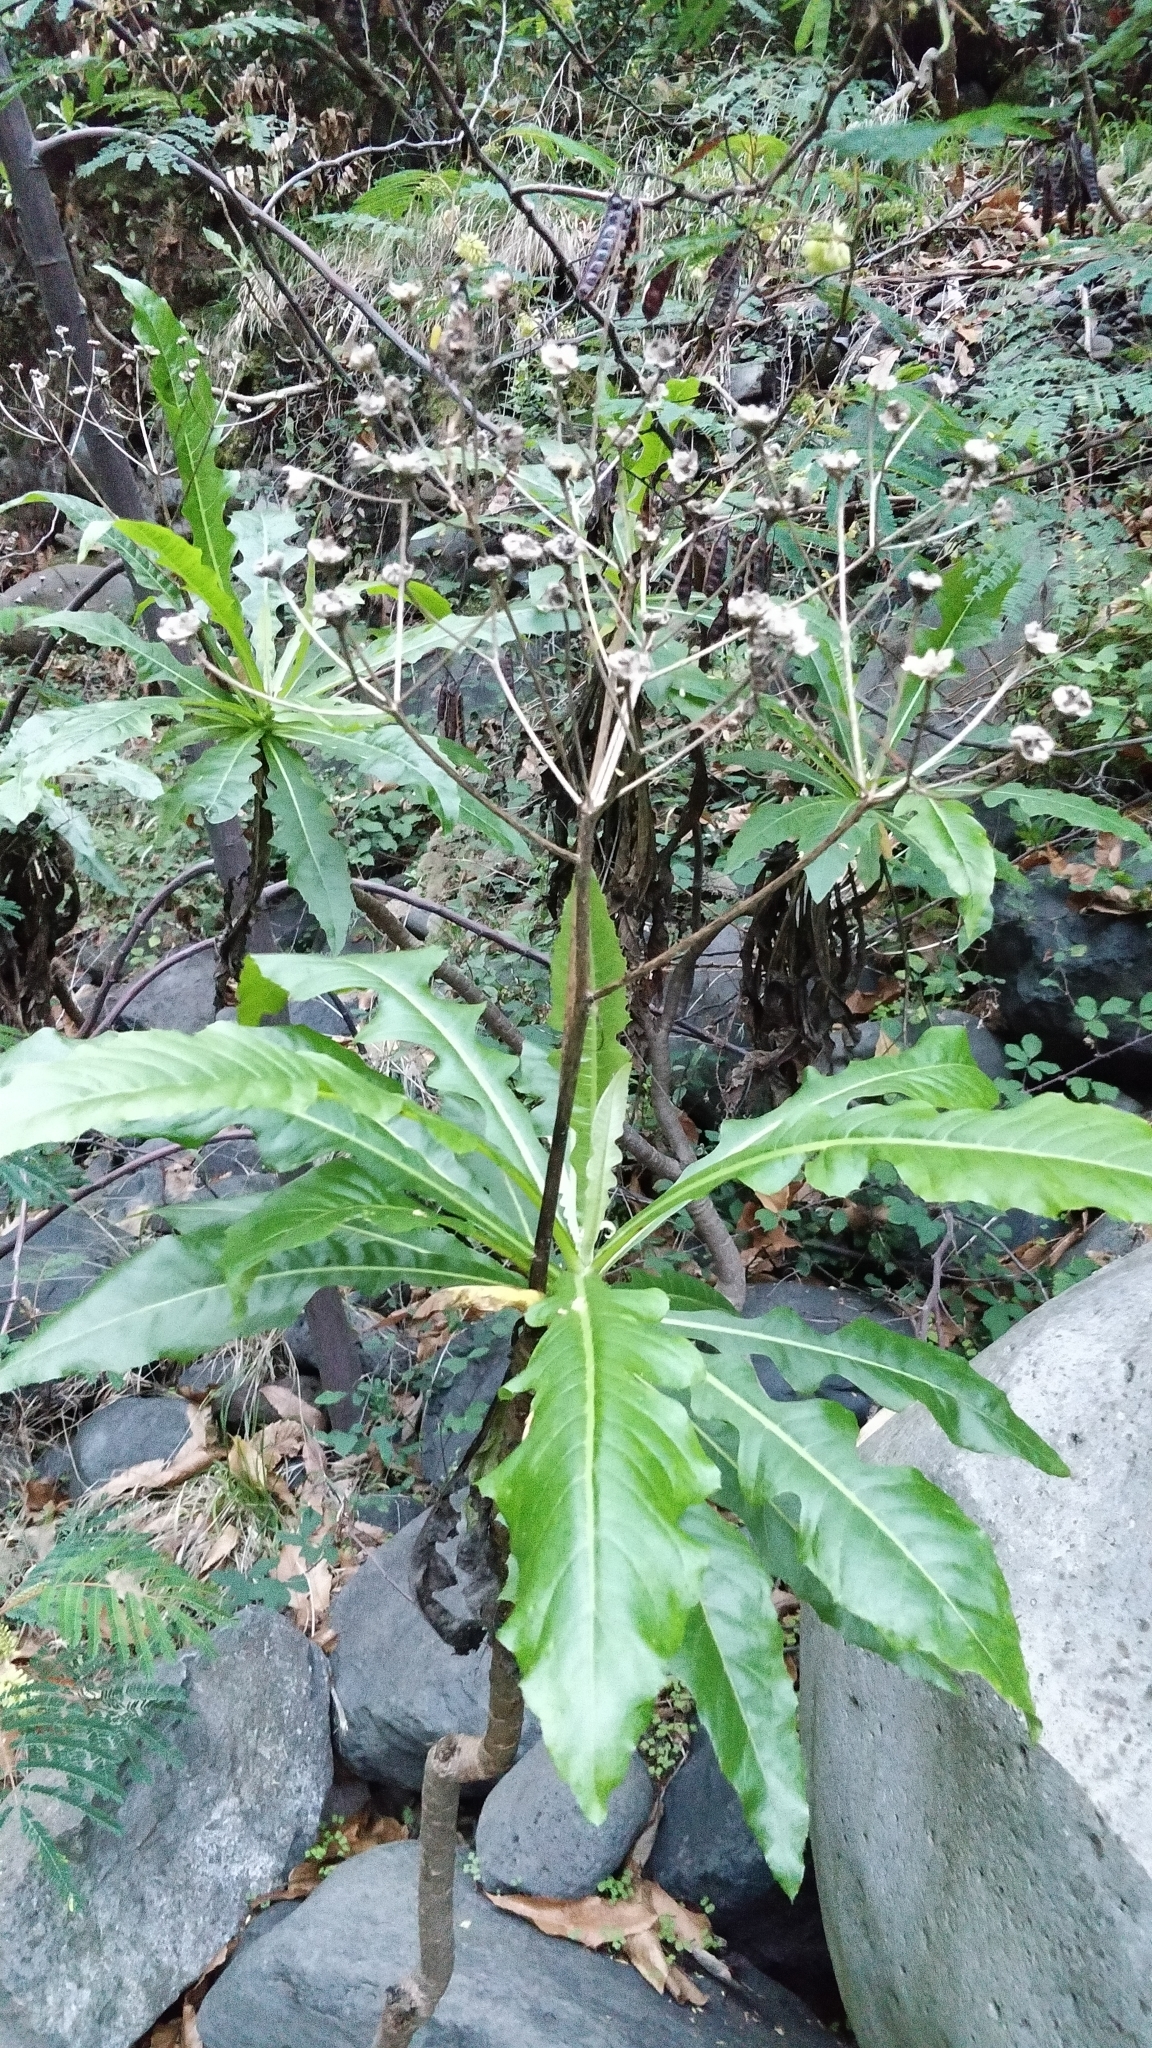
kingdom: Plantae
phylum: Tracheophyta
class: Magnoliopsida
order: Asterales
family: Asteraceae
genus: Sonchus
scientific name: Sonchus fruticosus
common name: Shrubby sow-thistle
